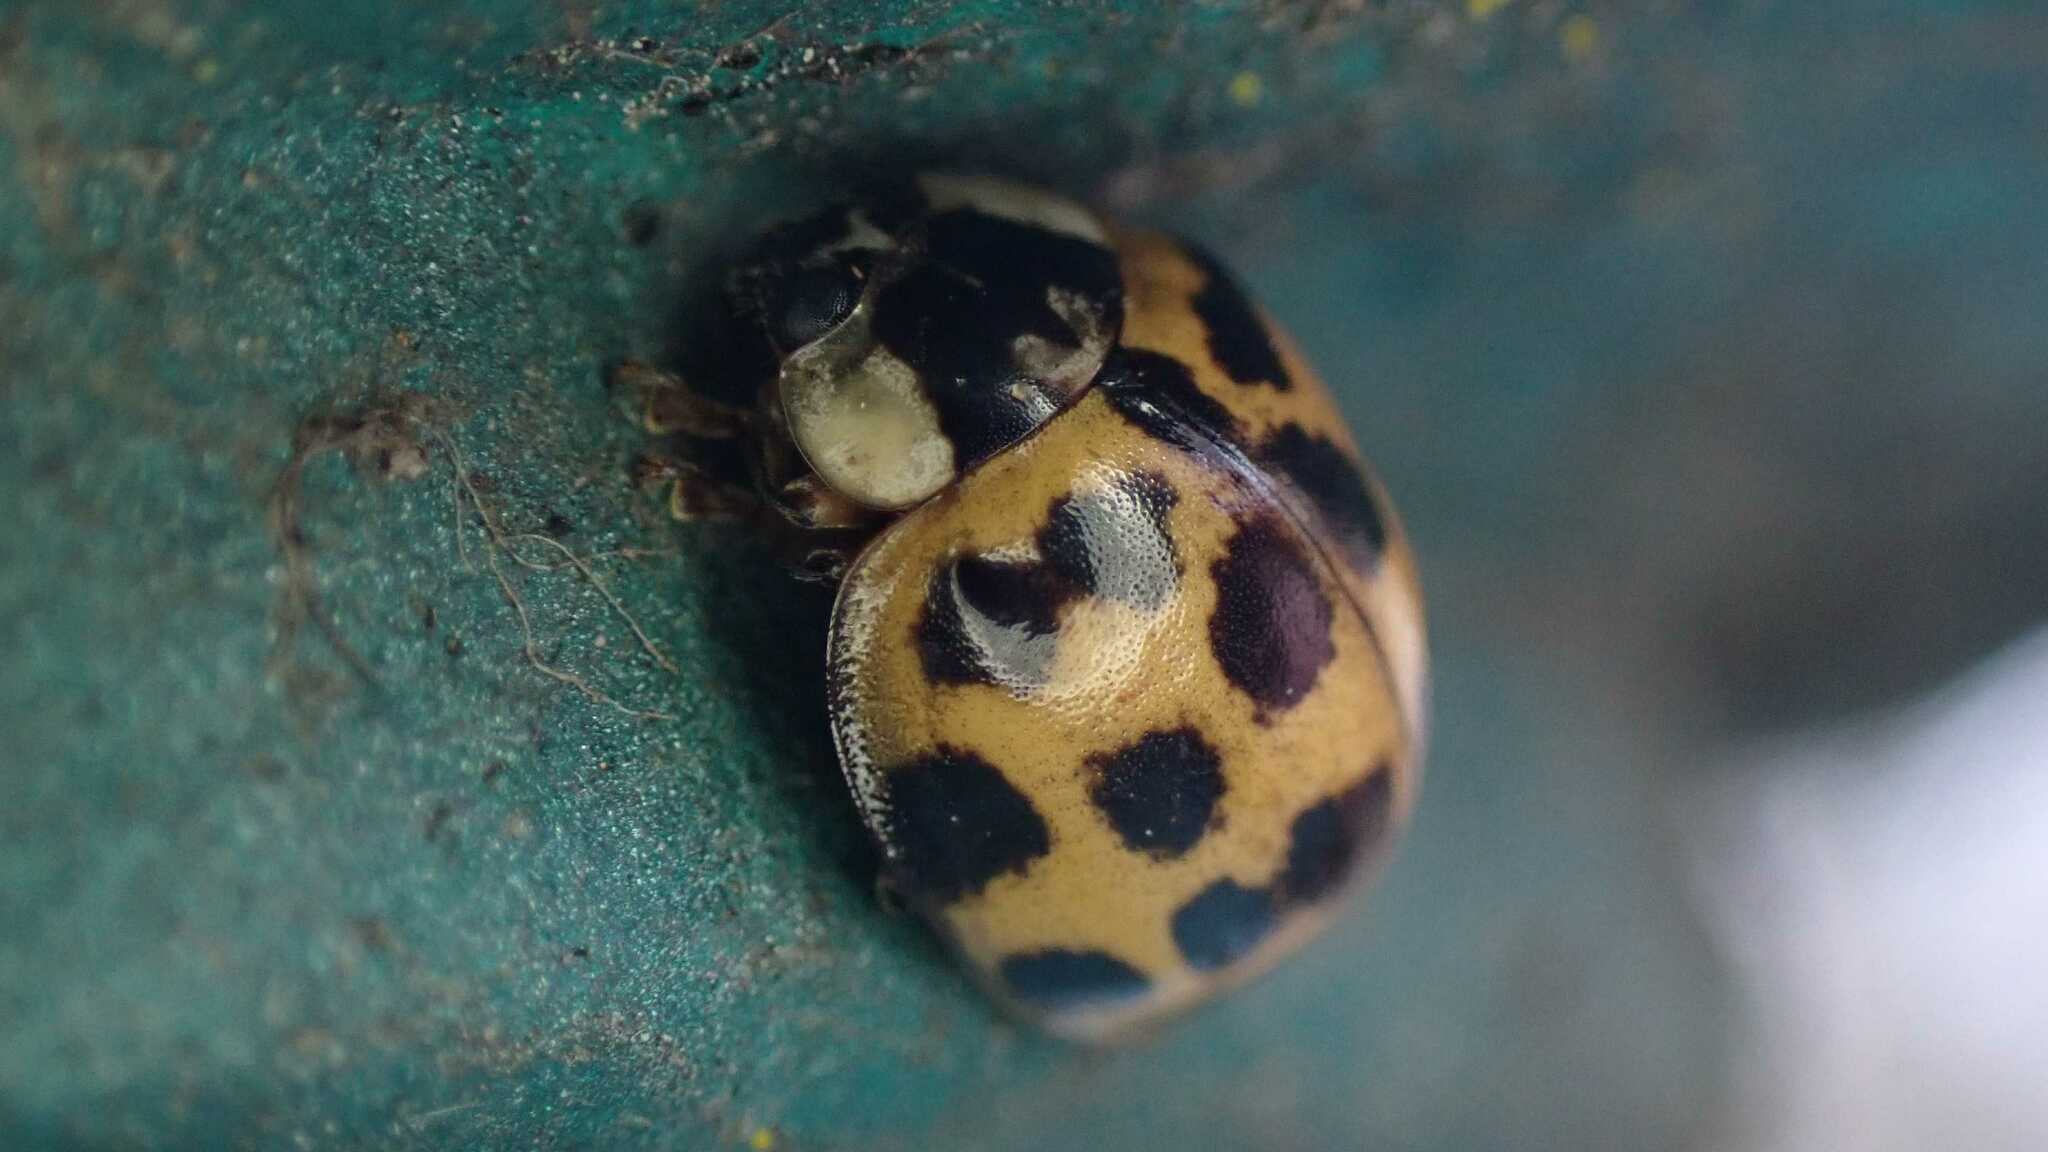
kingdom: Animalia
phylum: Arthropoda
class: Insecta
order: Coleoptera
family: Coccinellidae
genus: Harmonia
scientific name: Harmonia axyridis
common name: Harlequin ladybird
